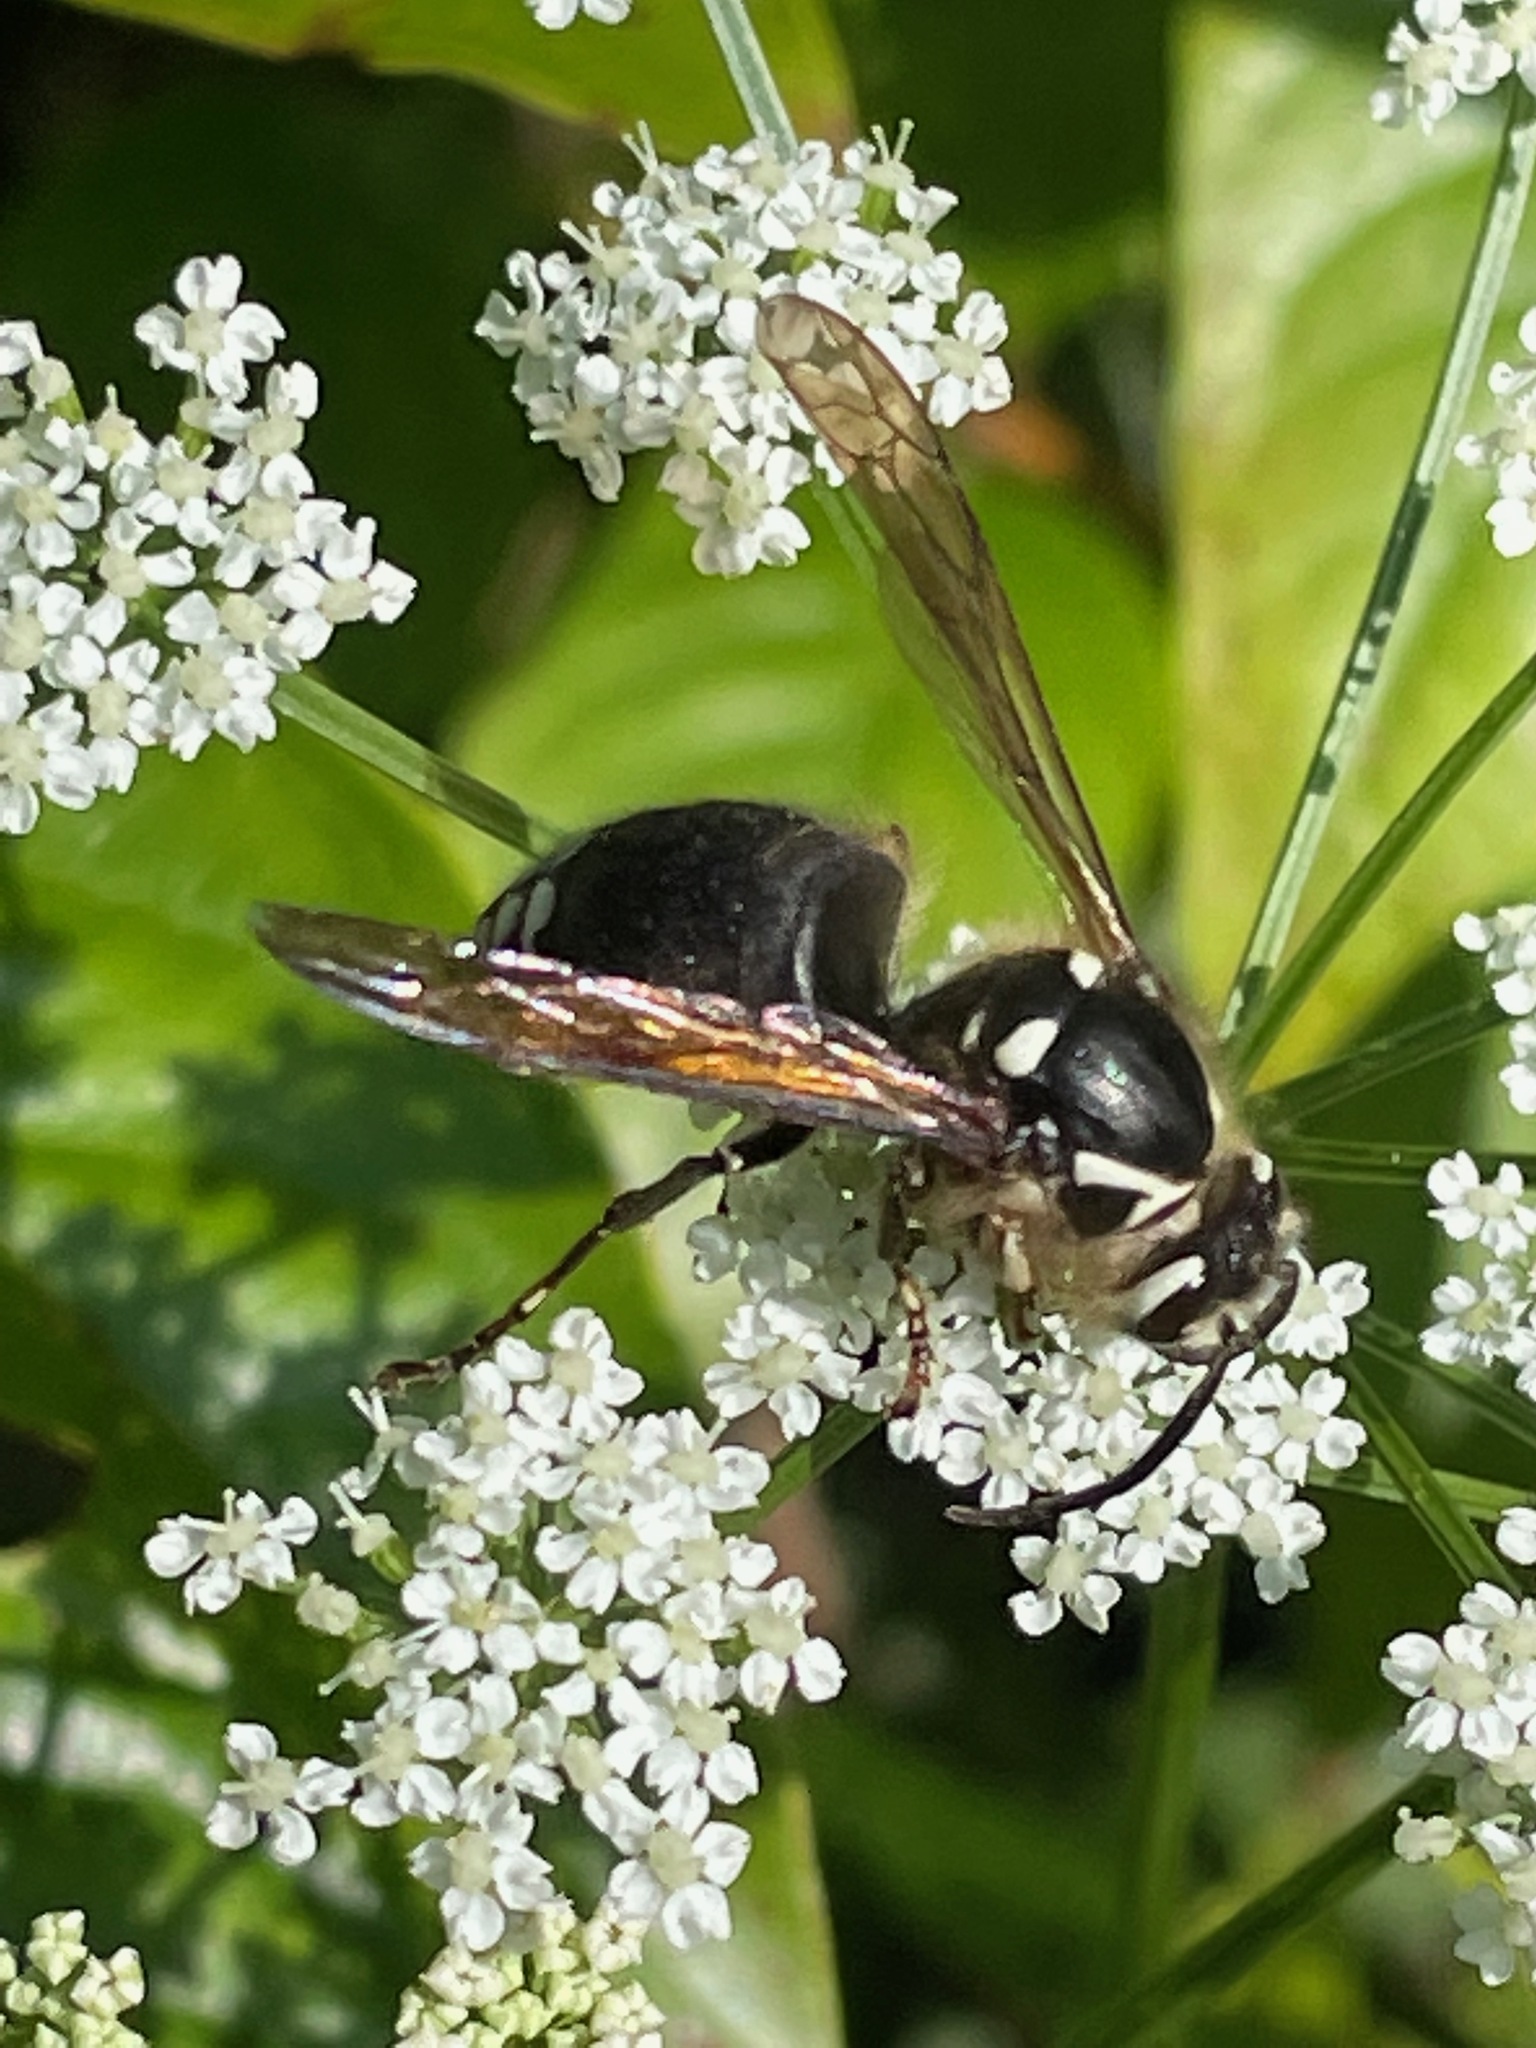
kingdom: Animalia
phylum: Arthropoda
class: Insecta
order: Hymenoptera
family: Vespidae
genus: Dolichovespula
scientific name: Dolichovespula maculata
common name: Bald-faced hornet
